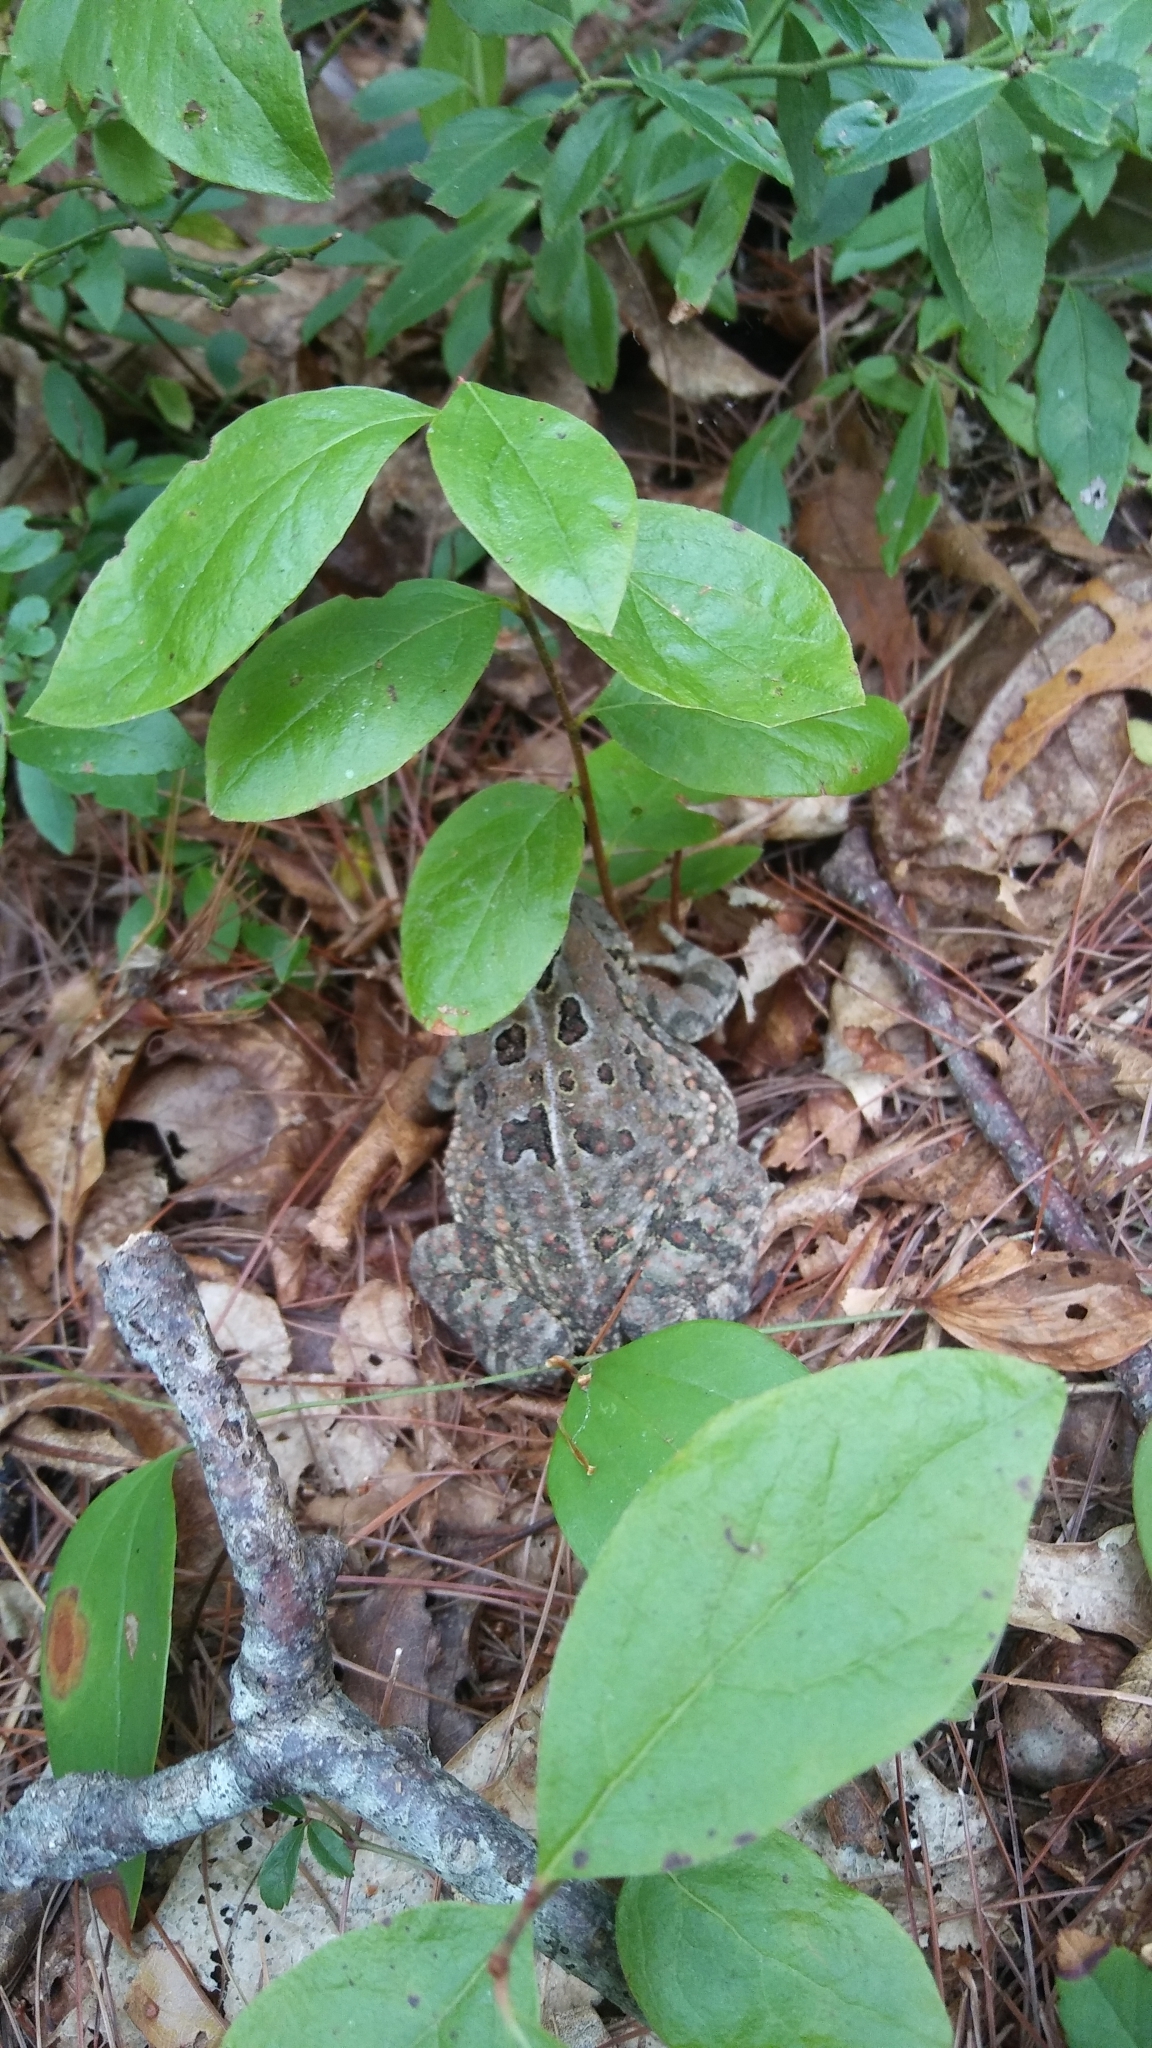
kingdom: Animalia
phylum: Chordata
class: Amphibia
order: Anura
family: Bufonidae
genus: Anaxyrus
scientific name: Anaxyrus fowleri
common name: Fowler's toad
